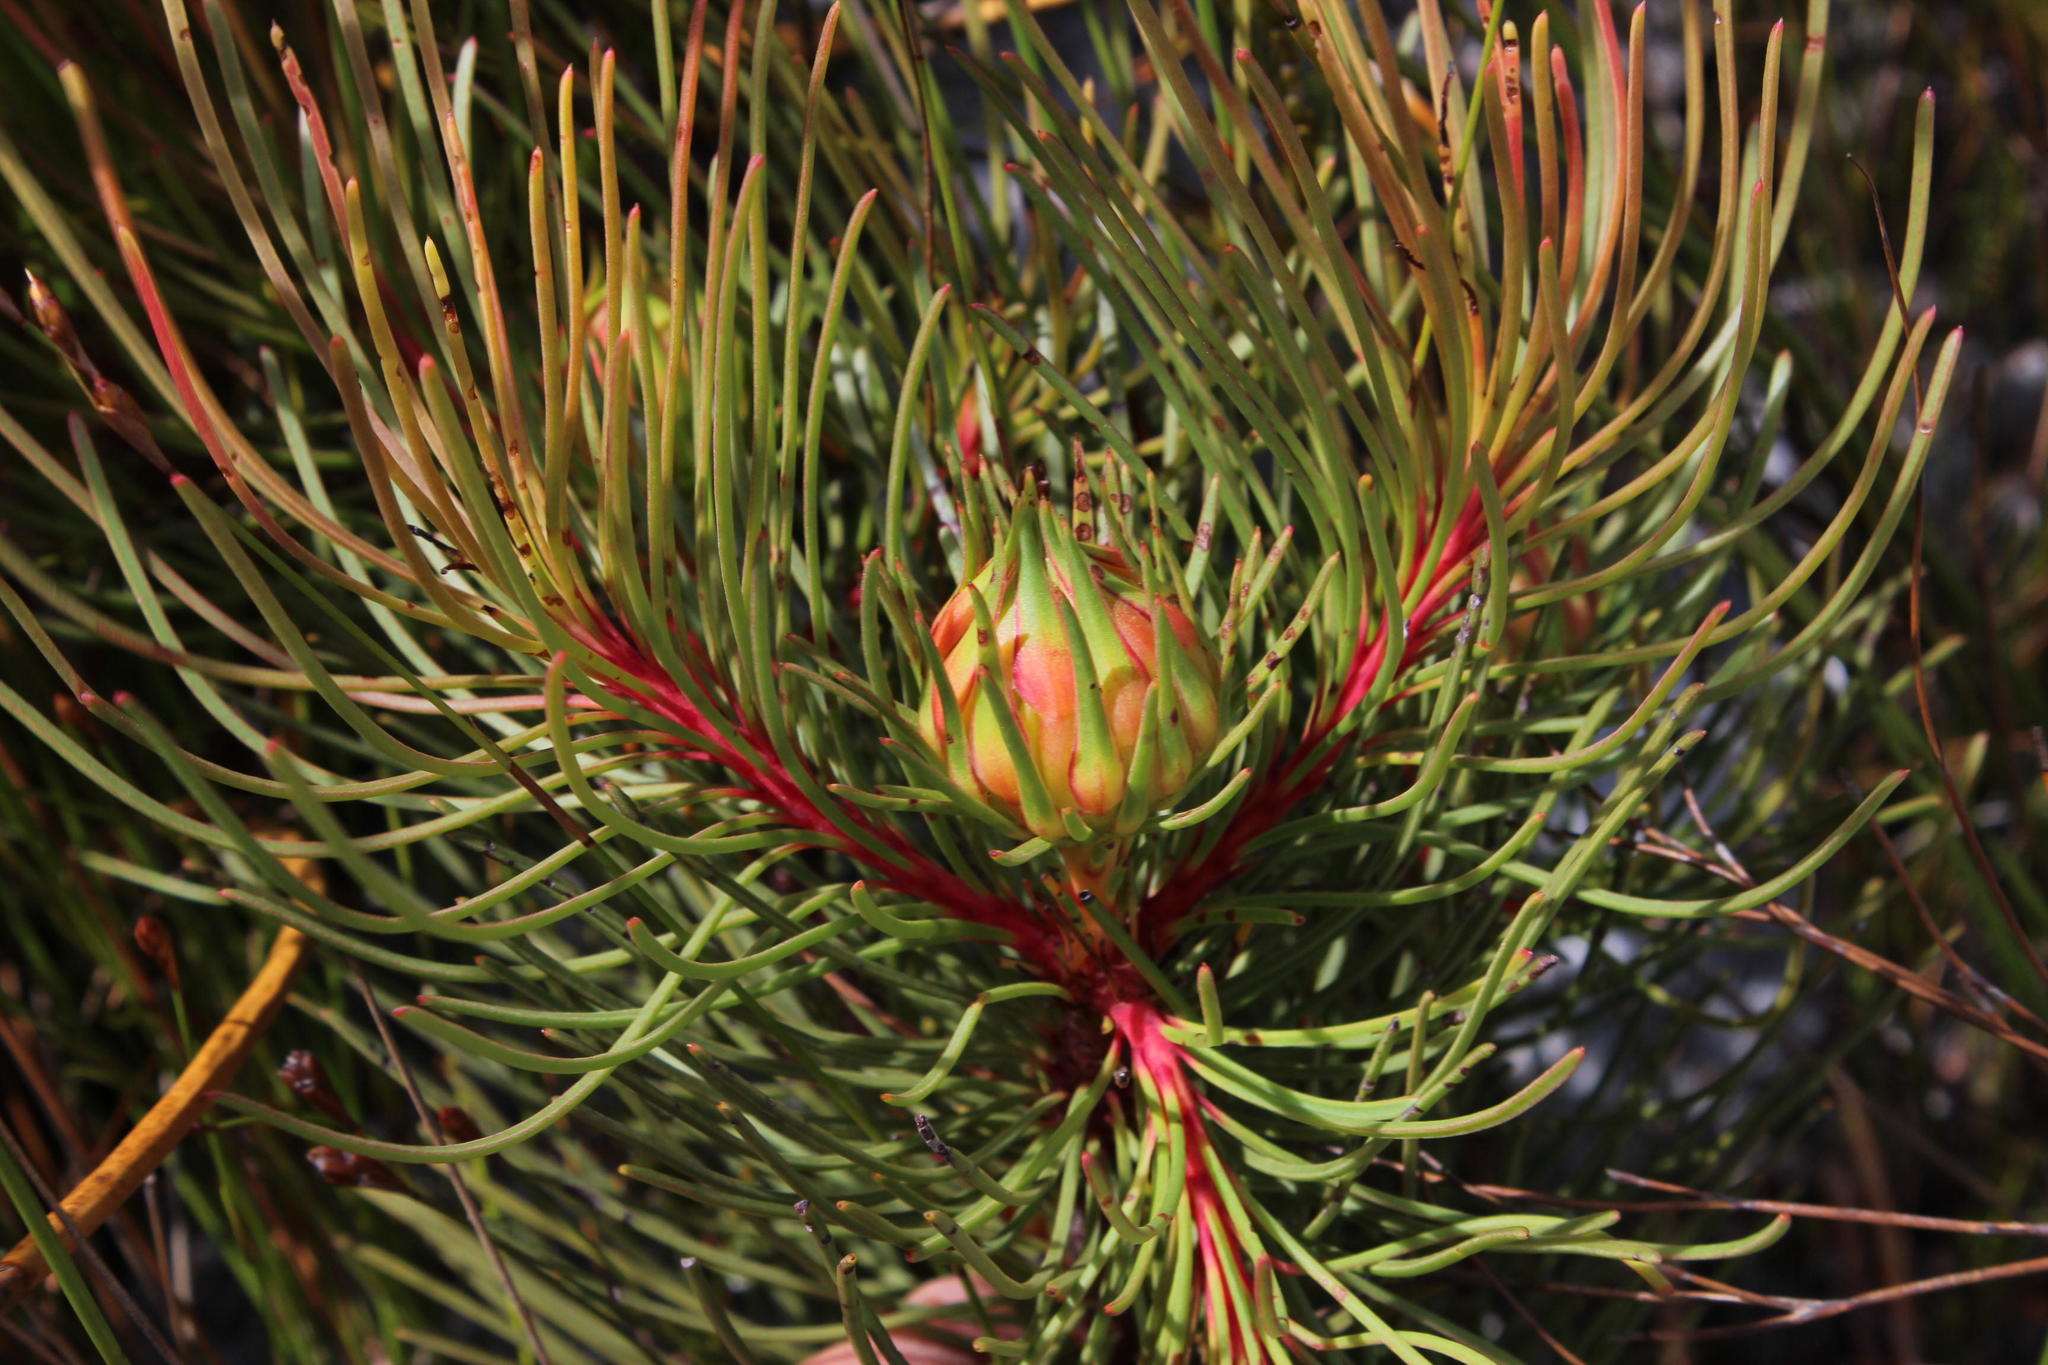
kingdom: Plantae
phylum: Tracheophyta
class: Magnoliopsida
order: Proteales
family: Proteaceae
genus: Aulax
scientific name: Aulax cancellata
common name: Channel-leaf featherbush
